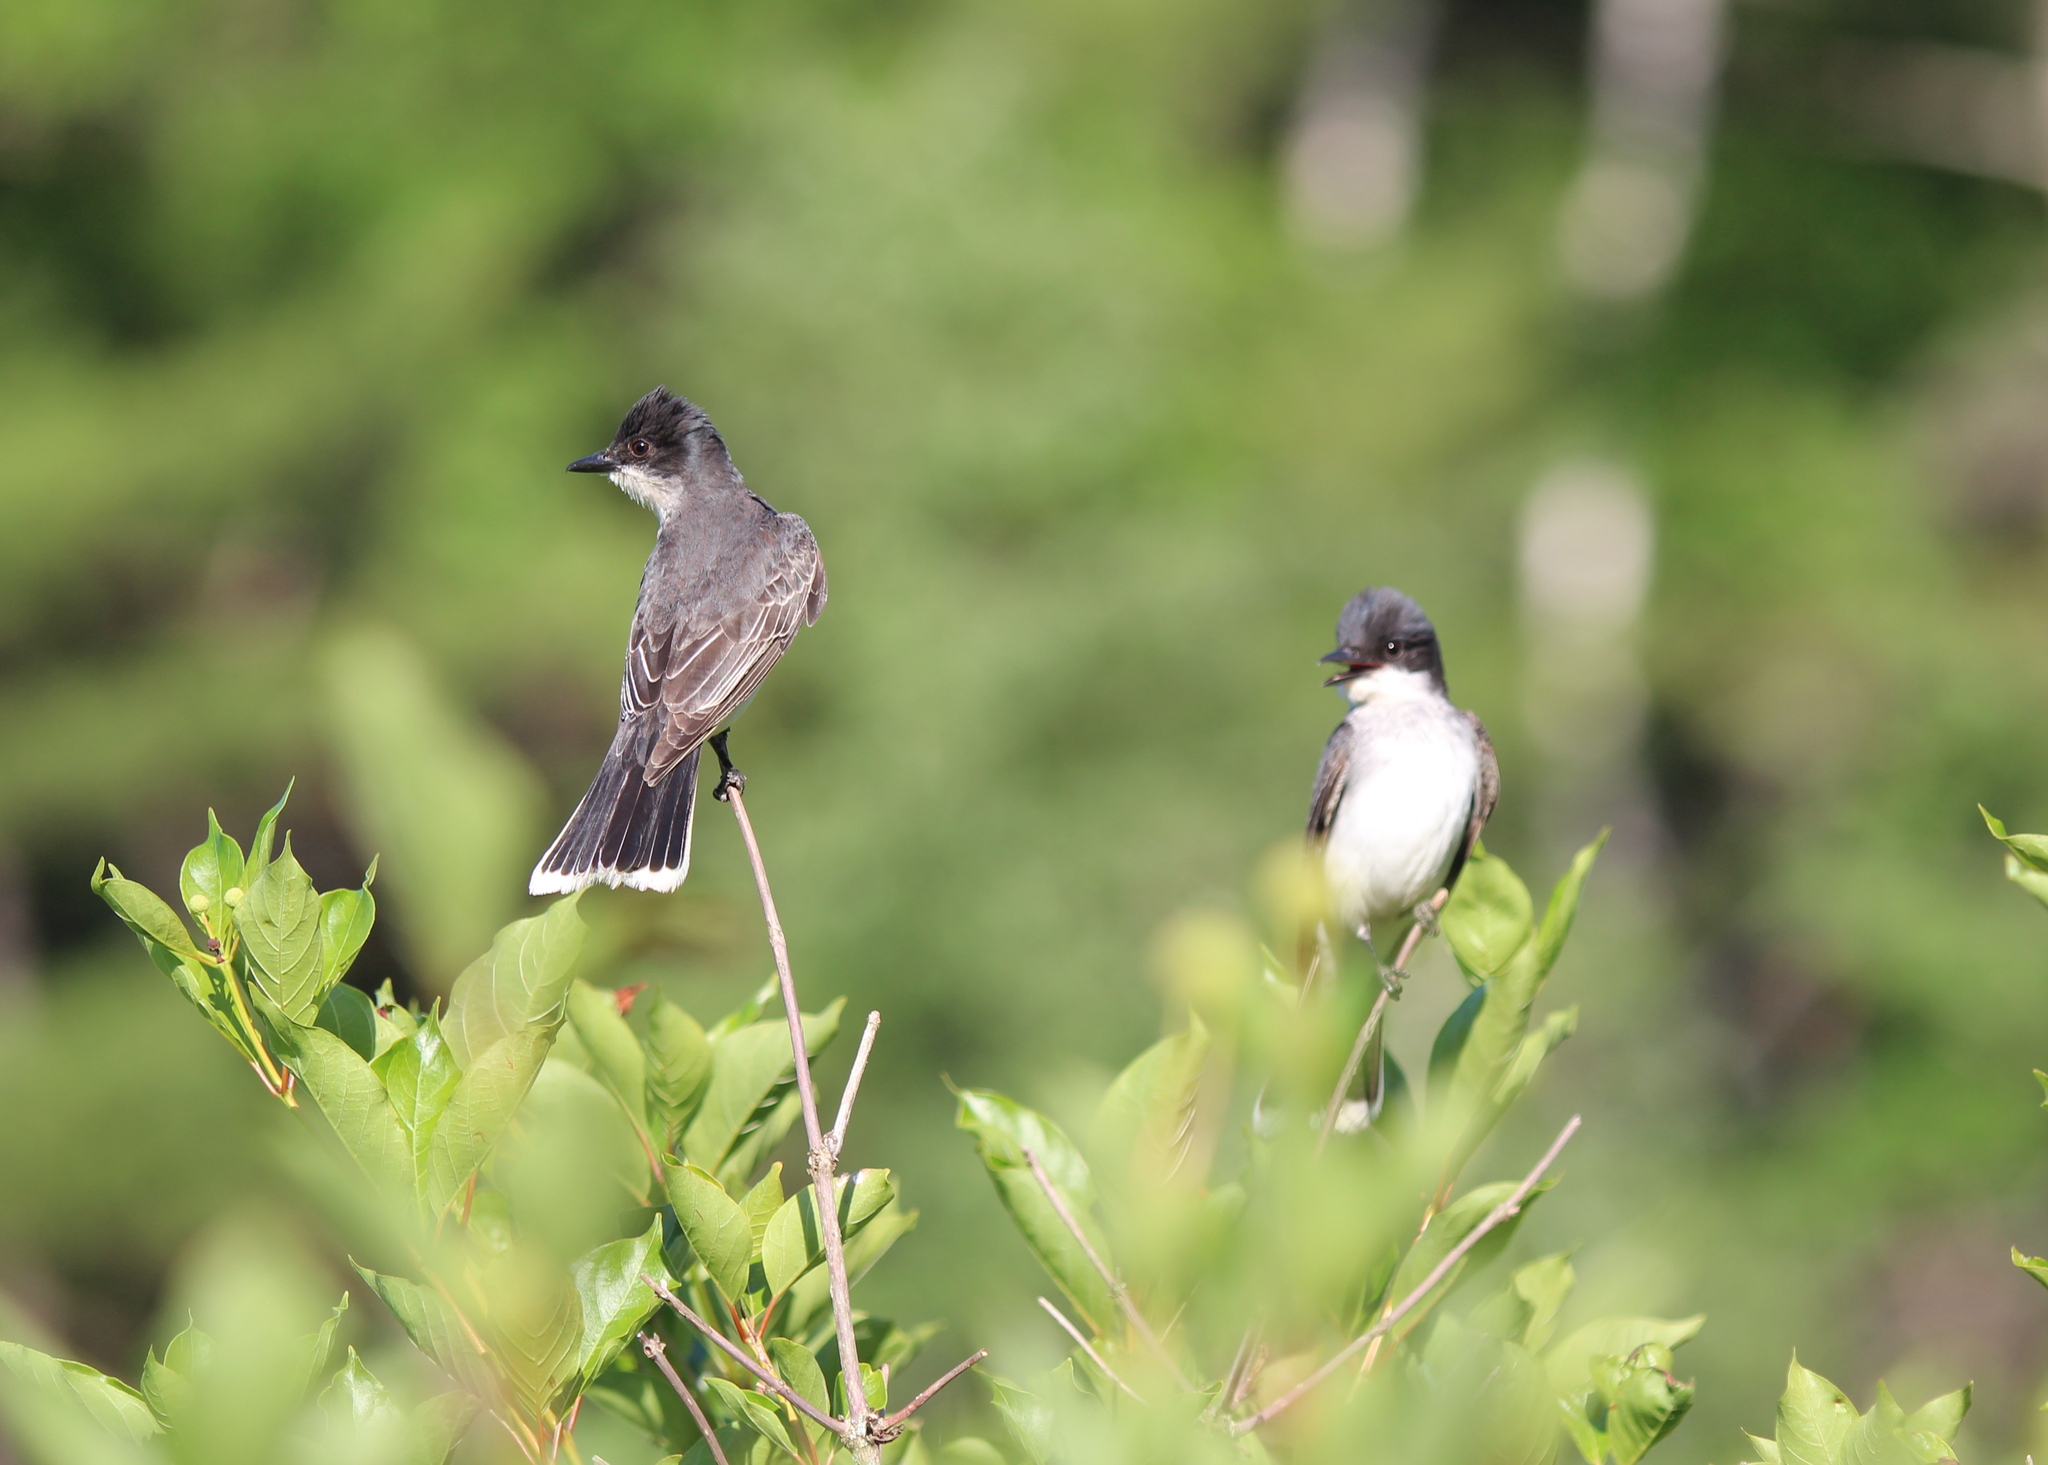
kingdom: Animalia
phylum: Chordata
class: Aves
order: Passeriformes
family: Tyrannidae
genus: Tyrannus
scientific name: Tyrannus tyrannus
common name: Eastern kingbird
